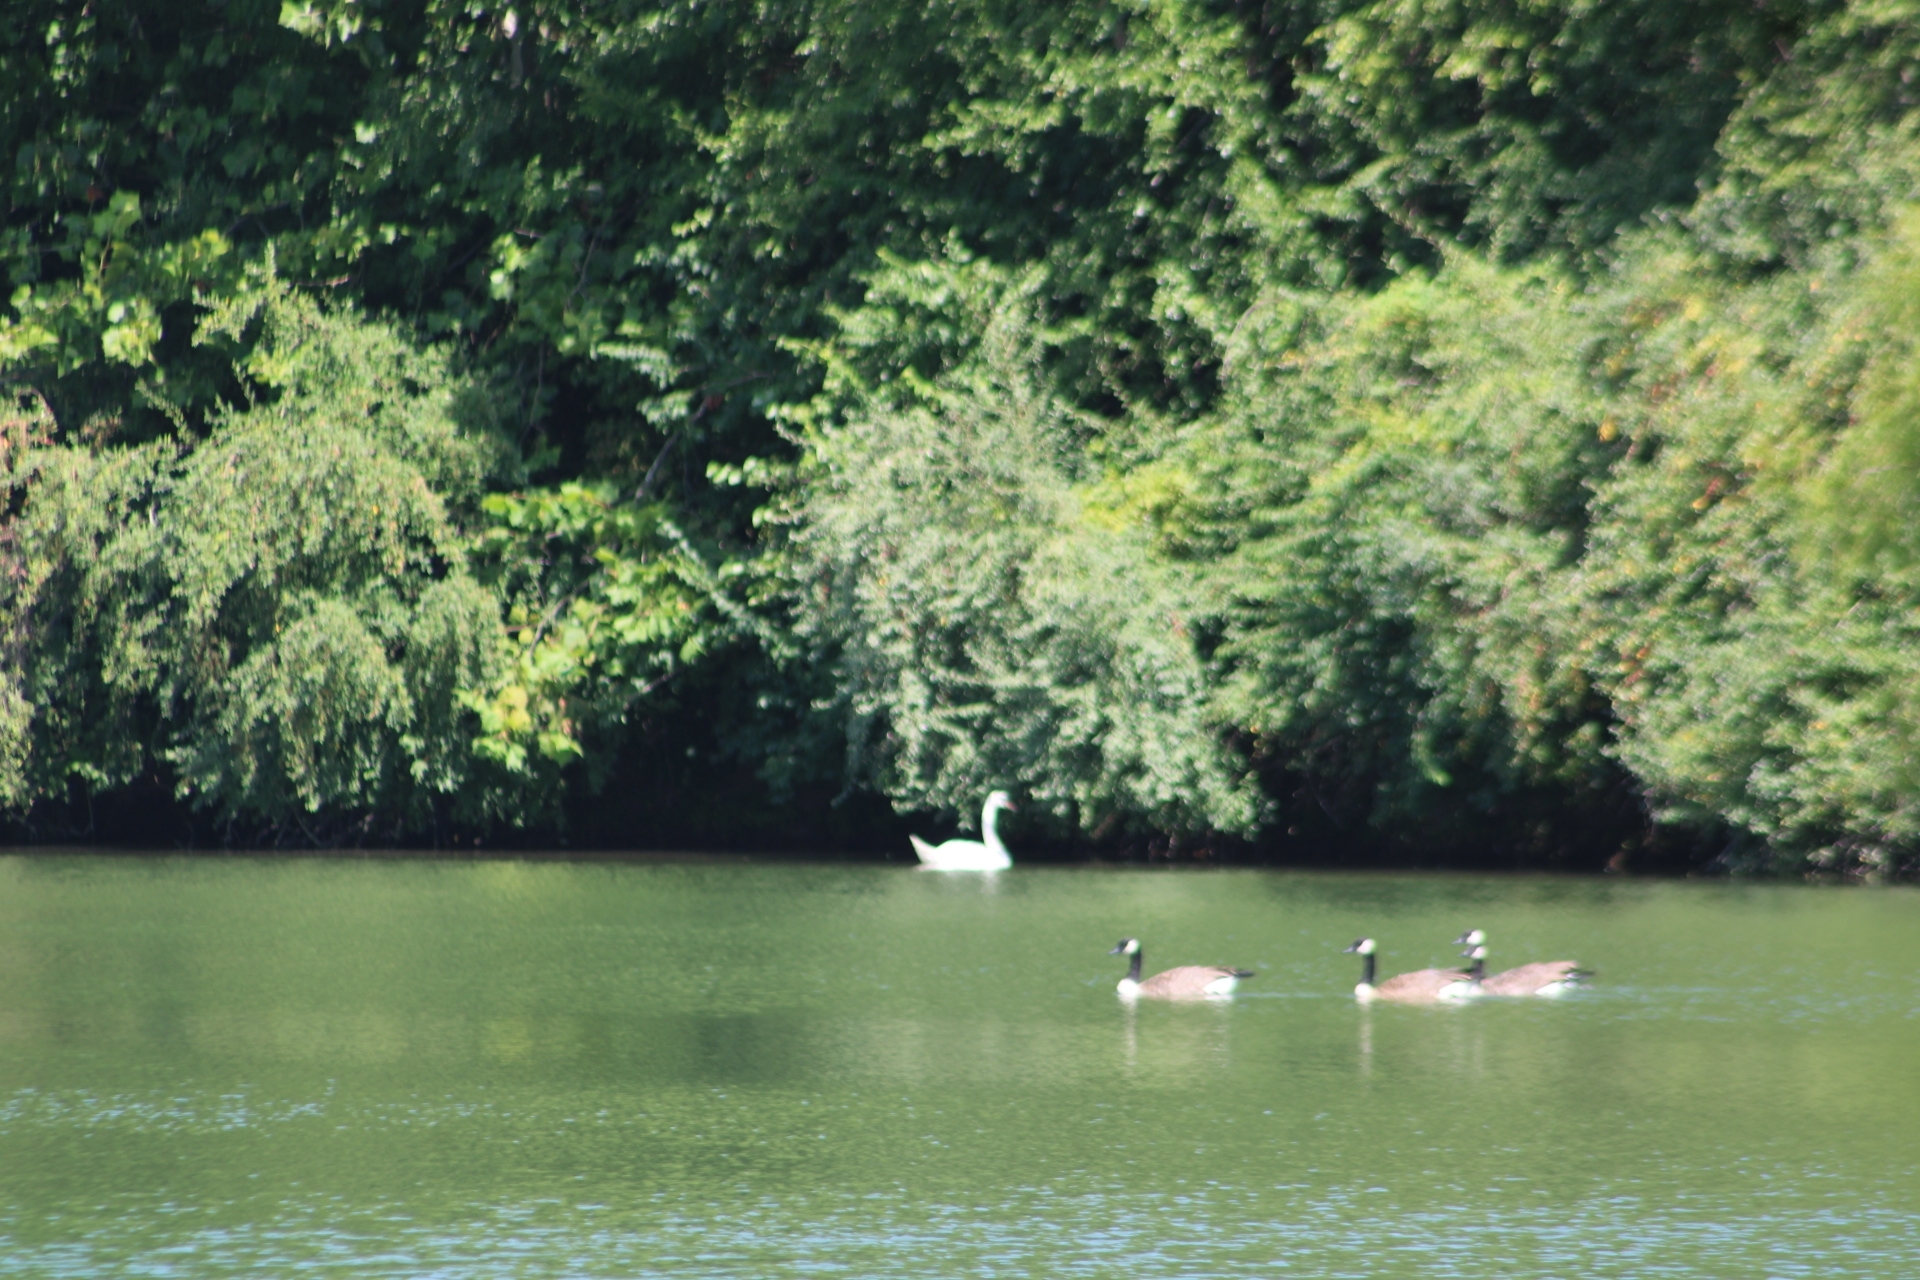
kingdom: Animalia
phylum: Chordata
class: Aves
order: Anseriformes
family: Anatidae
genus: Cygnus
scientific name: Cygnus olor
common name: Mute swan
